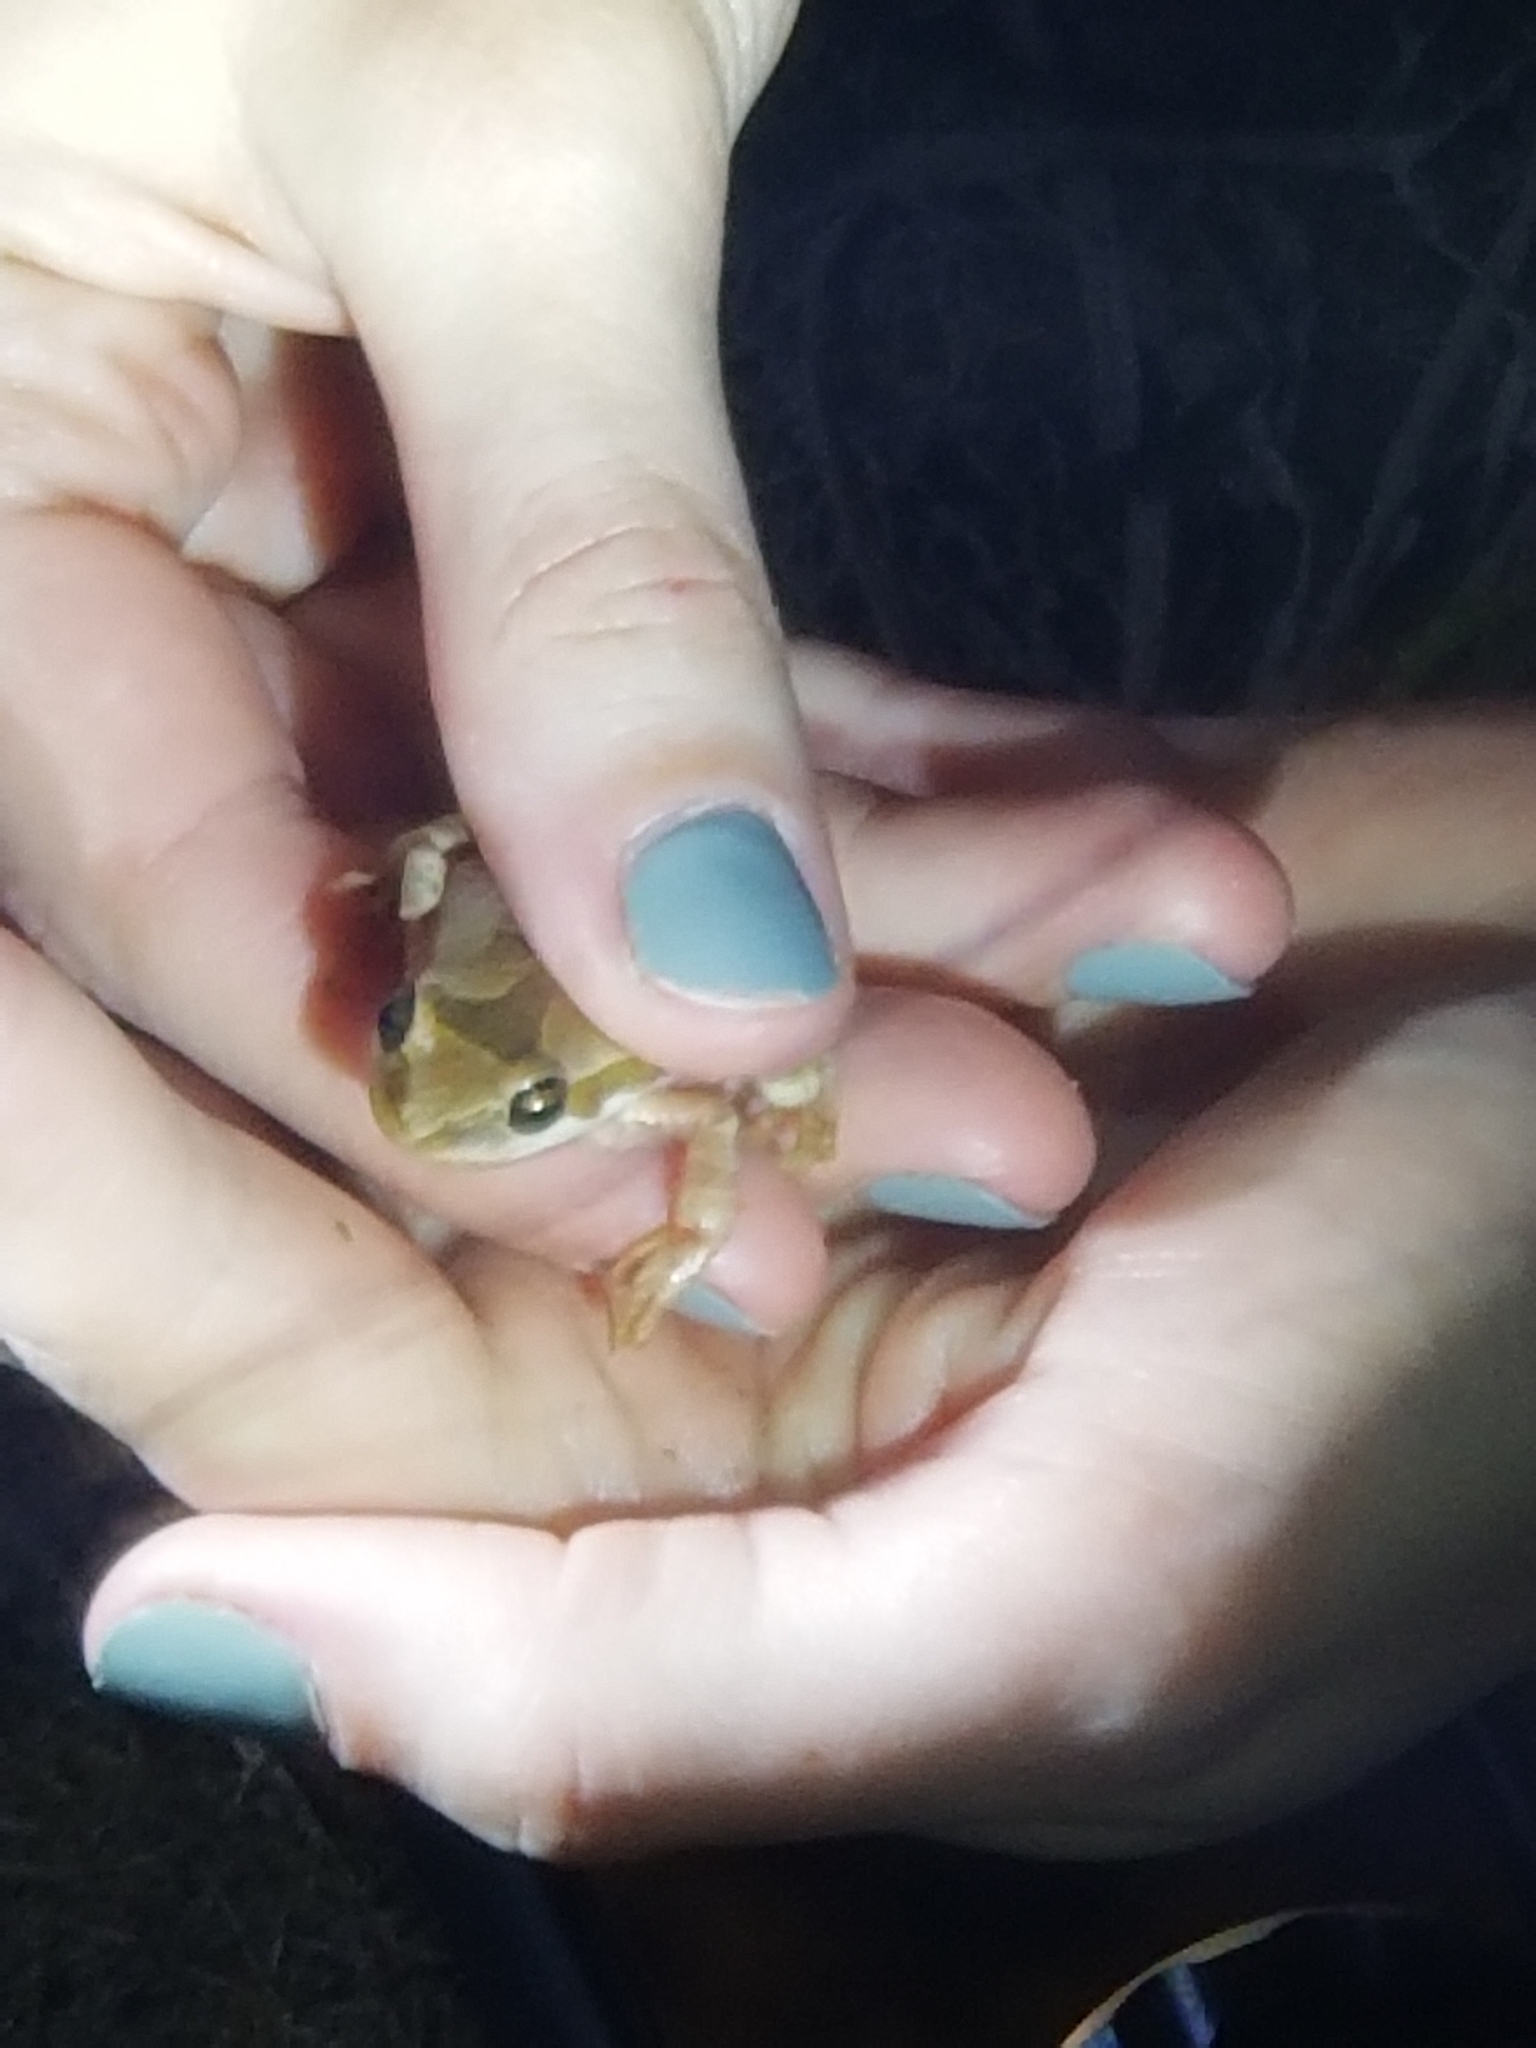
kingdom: Animalia
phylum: Chordata
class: Amphibia
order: Anura
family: Hylidae
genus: Pseudacris
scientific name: Pseudacris regilla
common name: Pacific chorus frog
